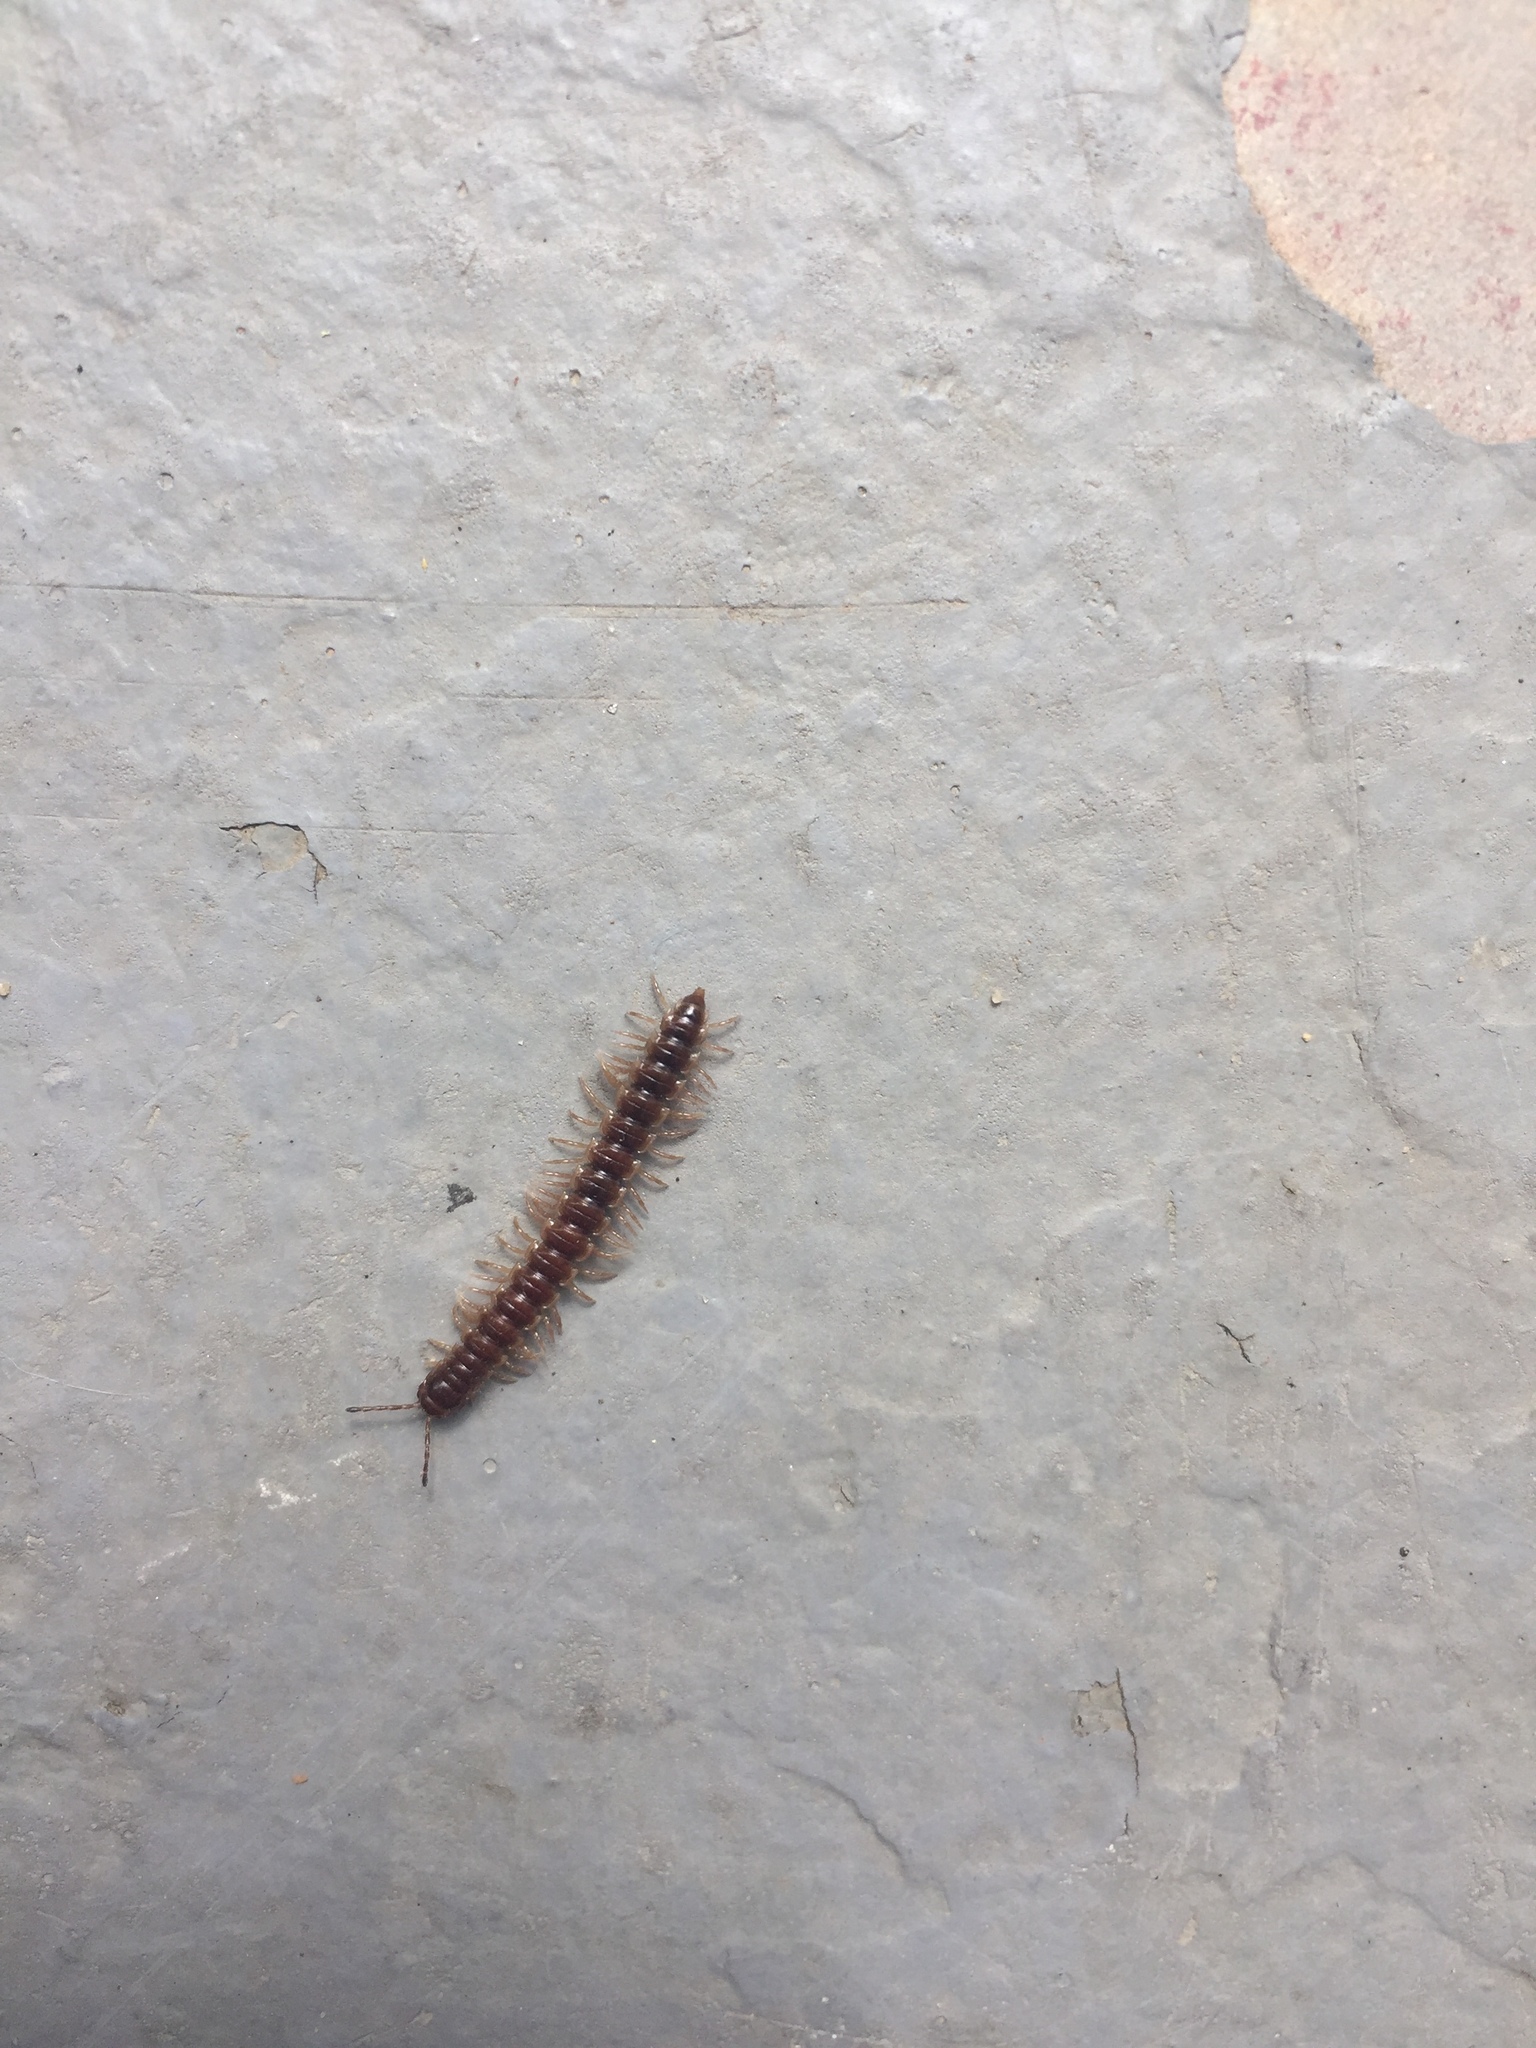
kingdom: Animalia
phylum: Arthropoda
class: Diplopoda
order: Polydesmida
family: Paradoxosomatidae
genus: Oxidus
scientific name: Oxidus gracilis
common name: Greenhouse millipede
